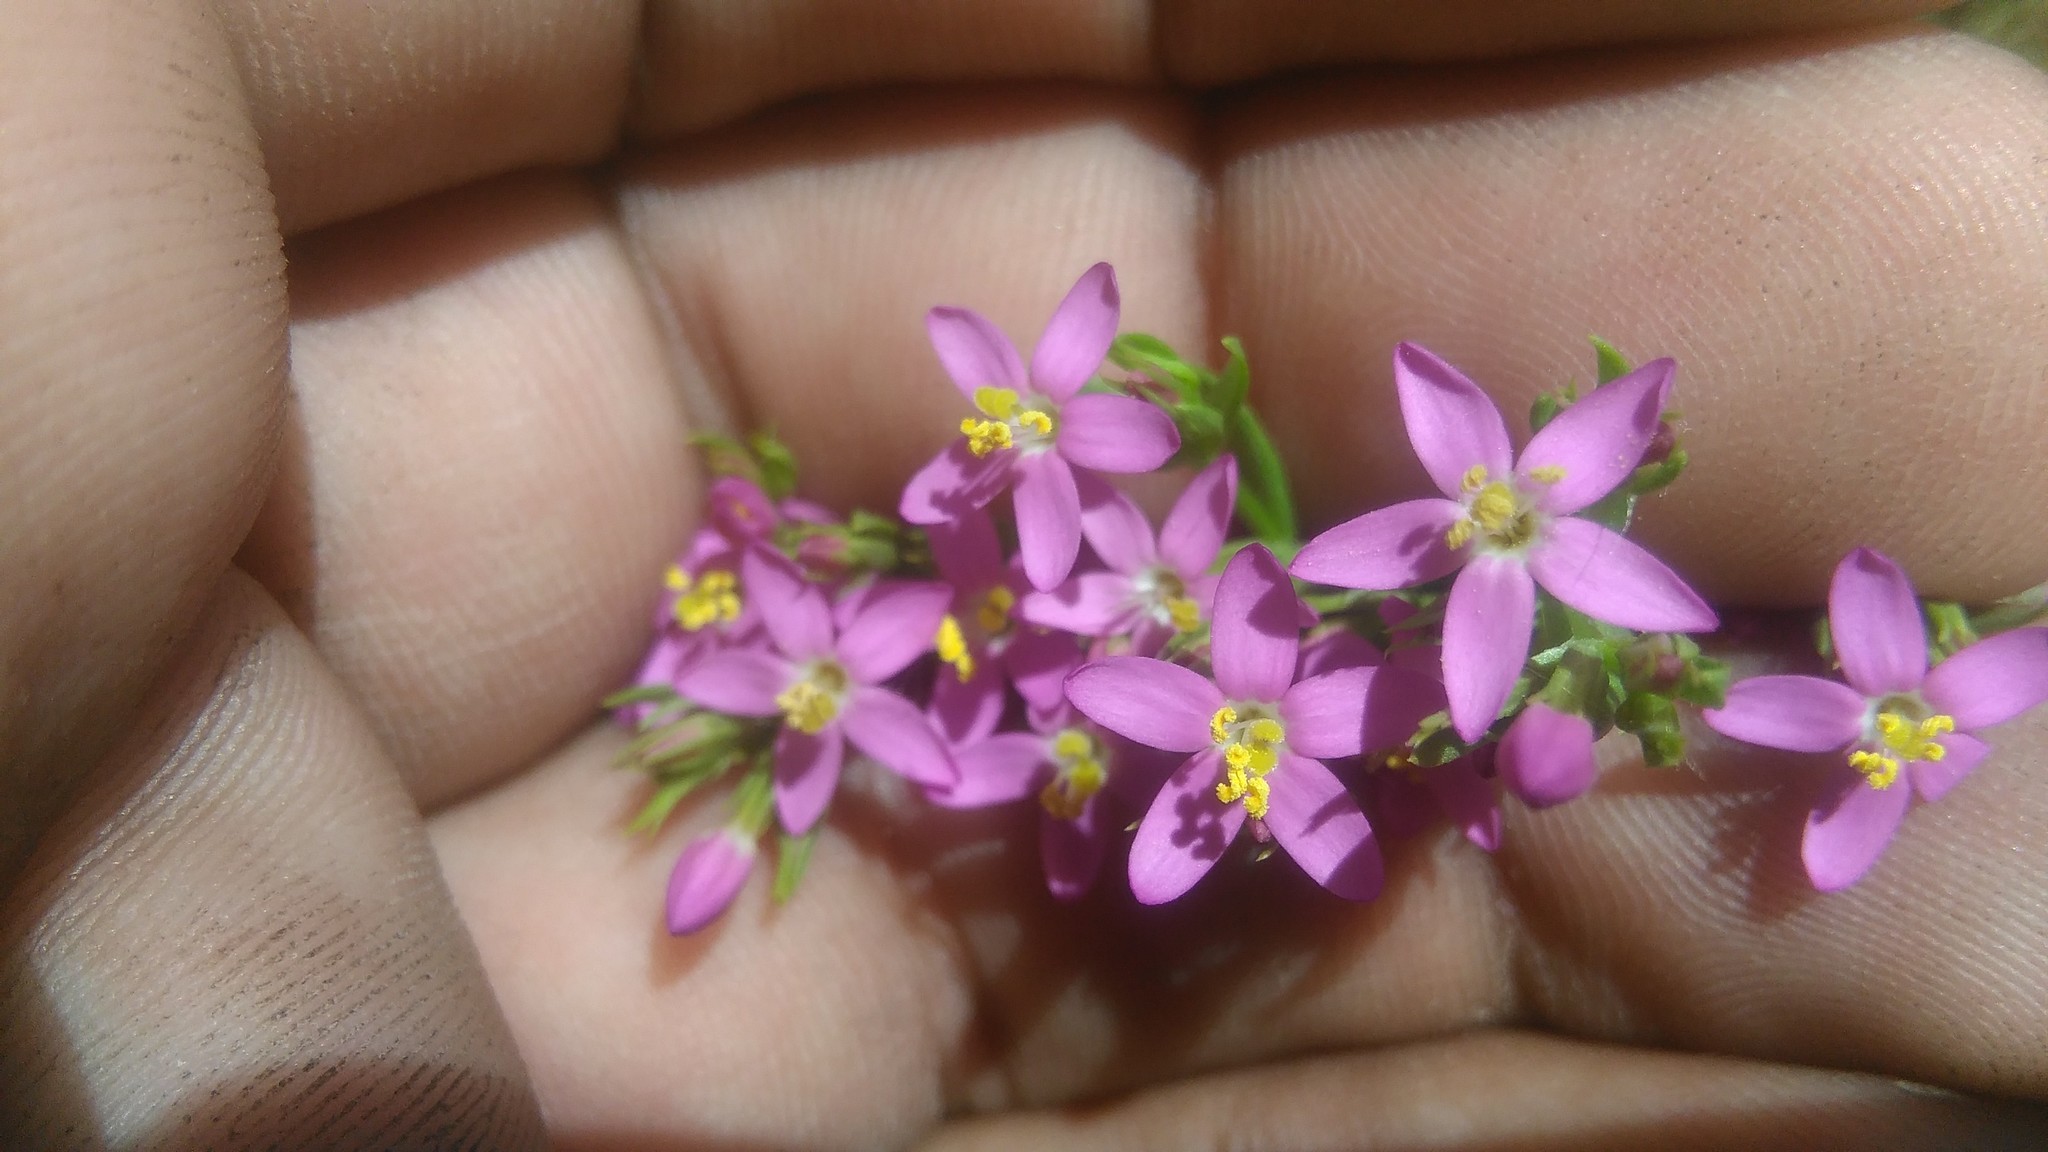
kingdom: Plantae
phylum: Tracheophyta
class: Magnoliopsida
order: Gentianales
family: Gentianaceae
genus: Centaurium
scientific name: Centaurium pulchellum
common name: Lesser centaury
